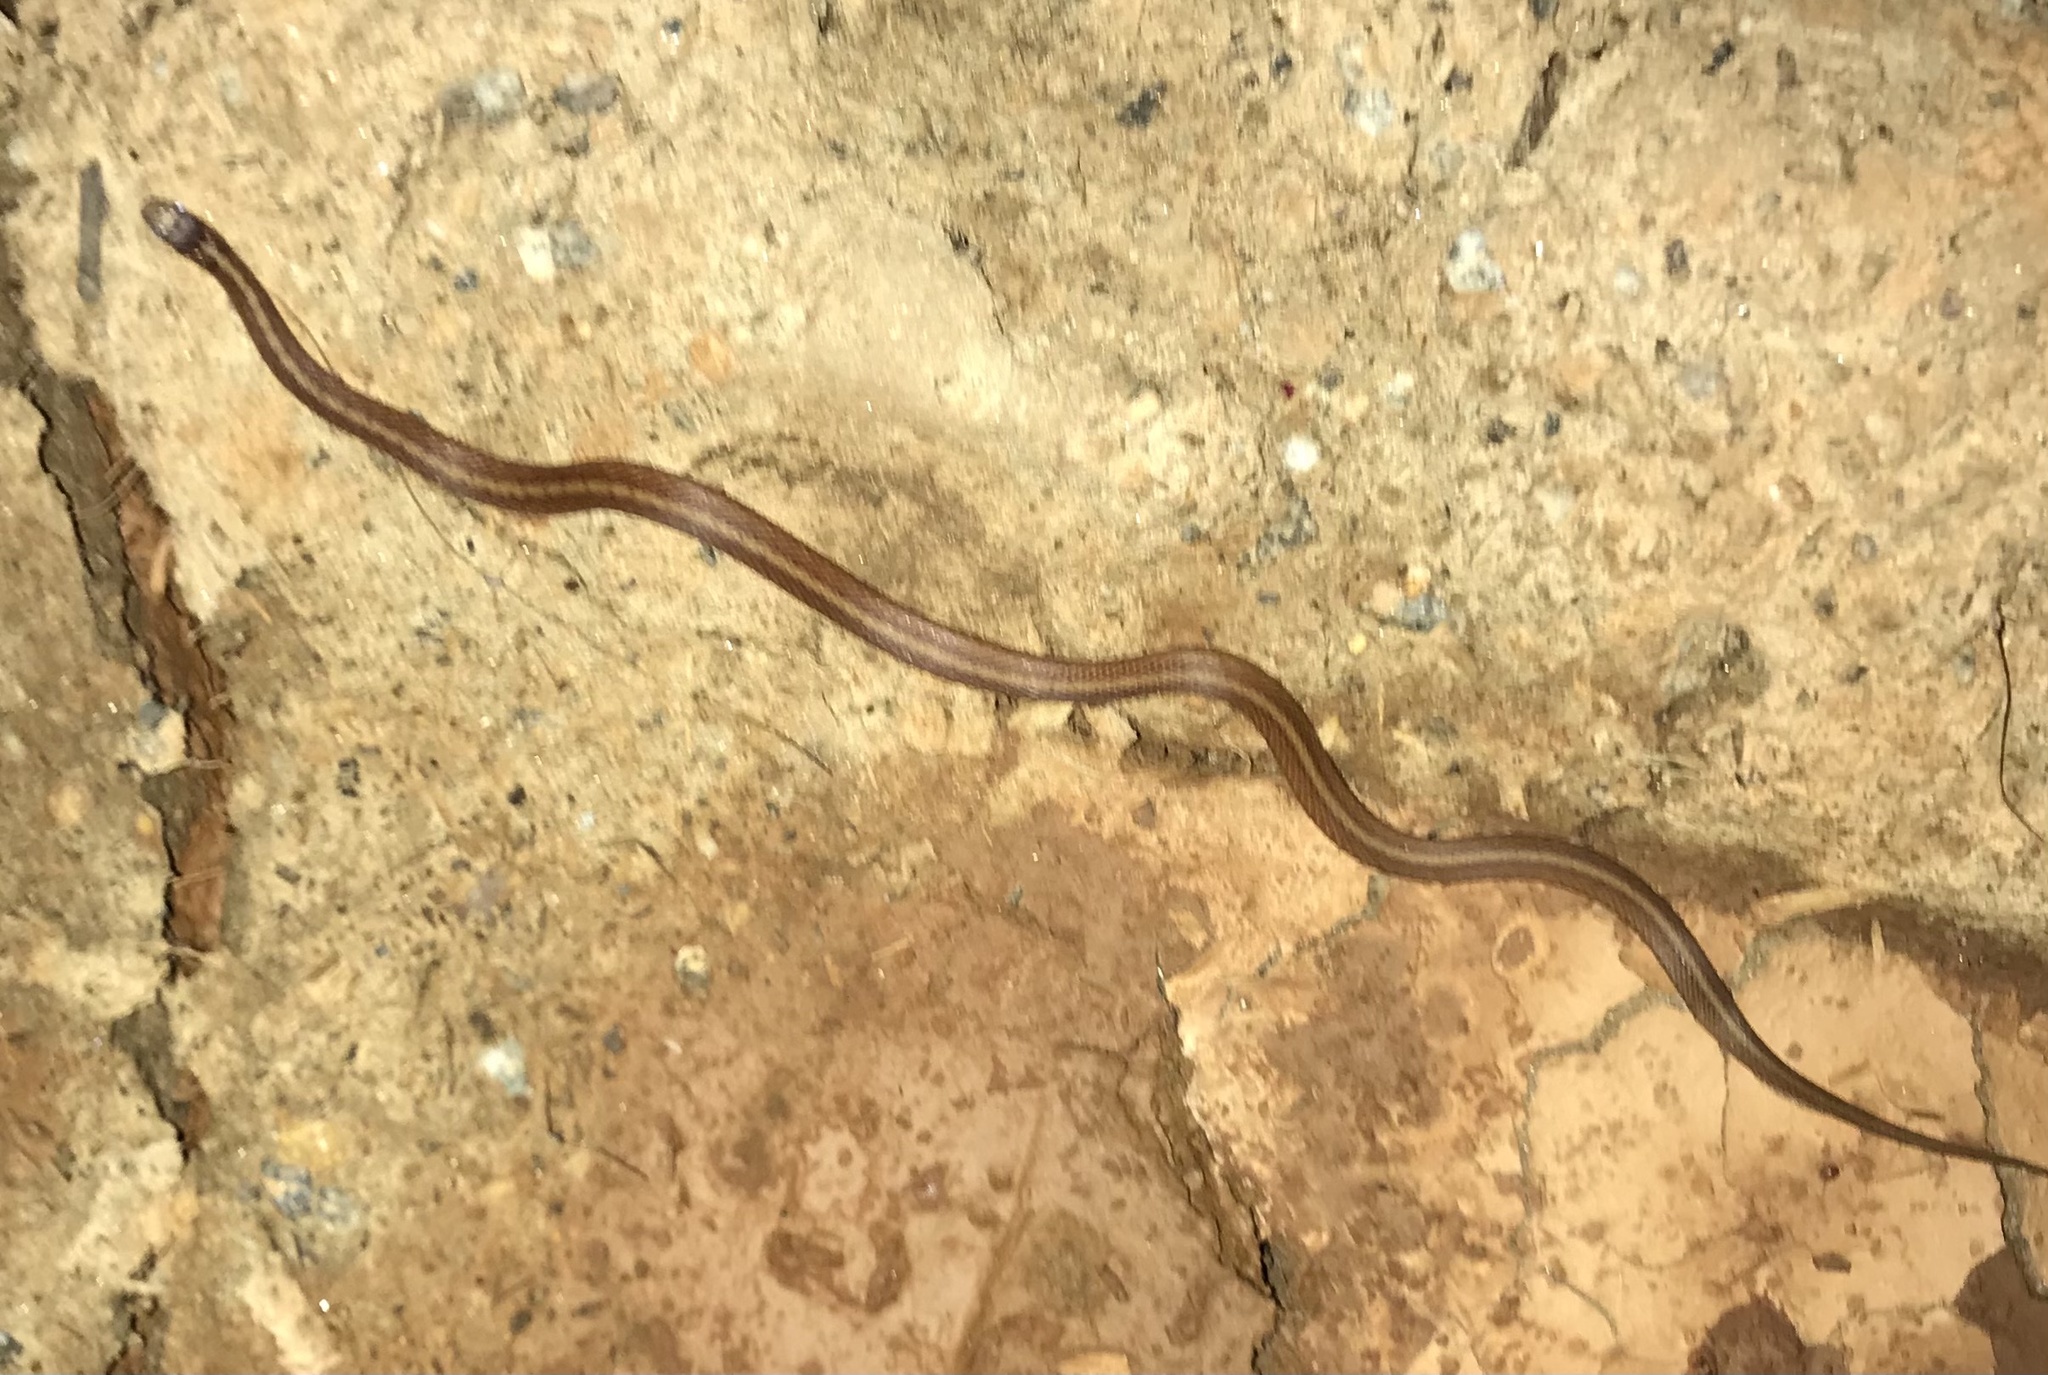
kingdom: Animalia
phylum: Chordata
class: Squamata
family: Colubridae
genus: Storeria
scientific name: Storeria dekayi
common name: (dekay’s) brown snake
